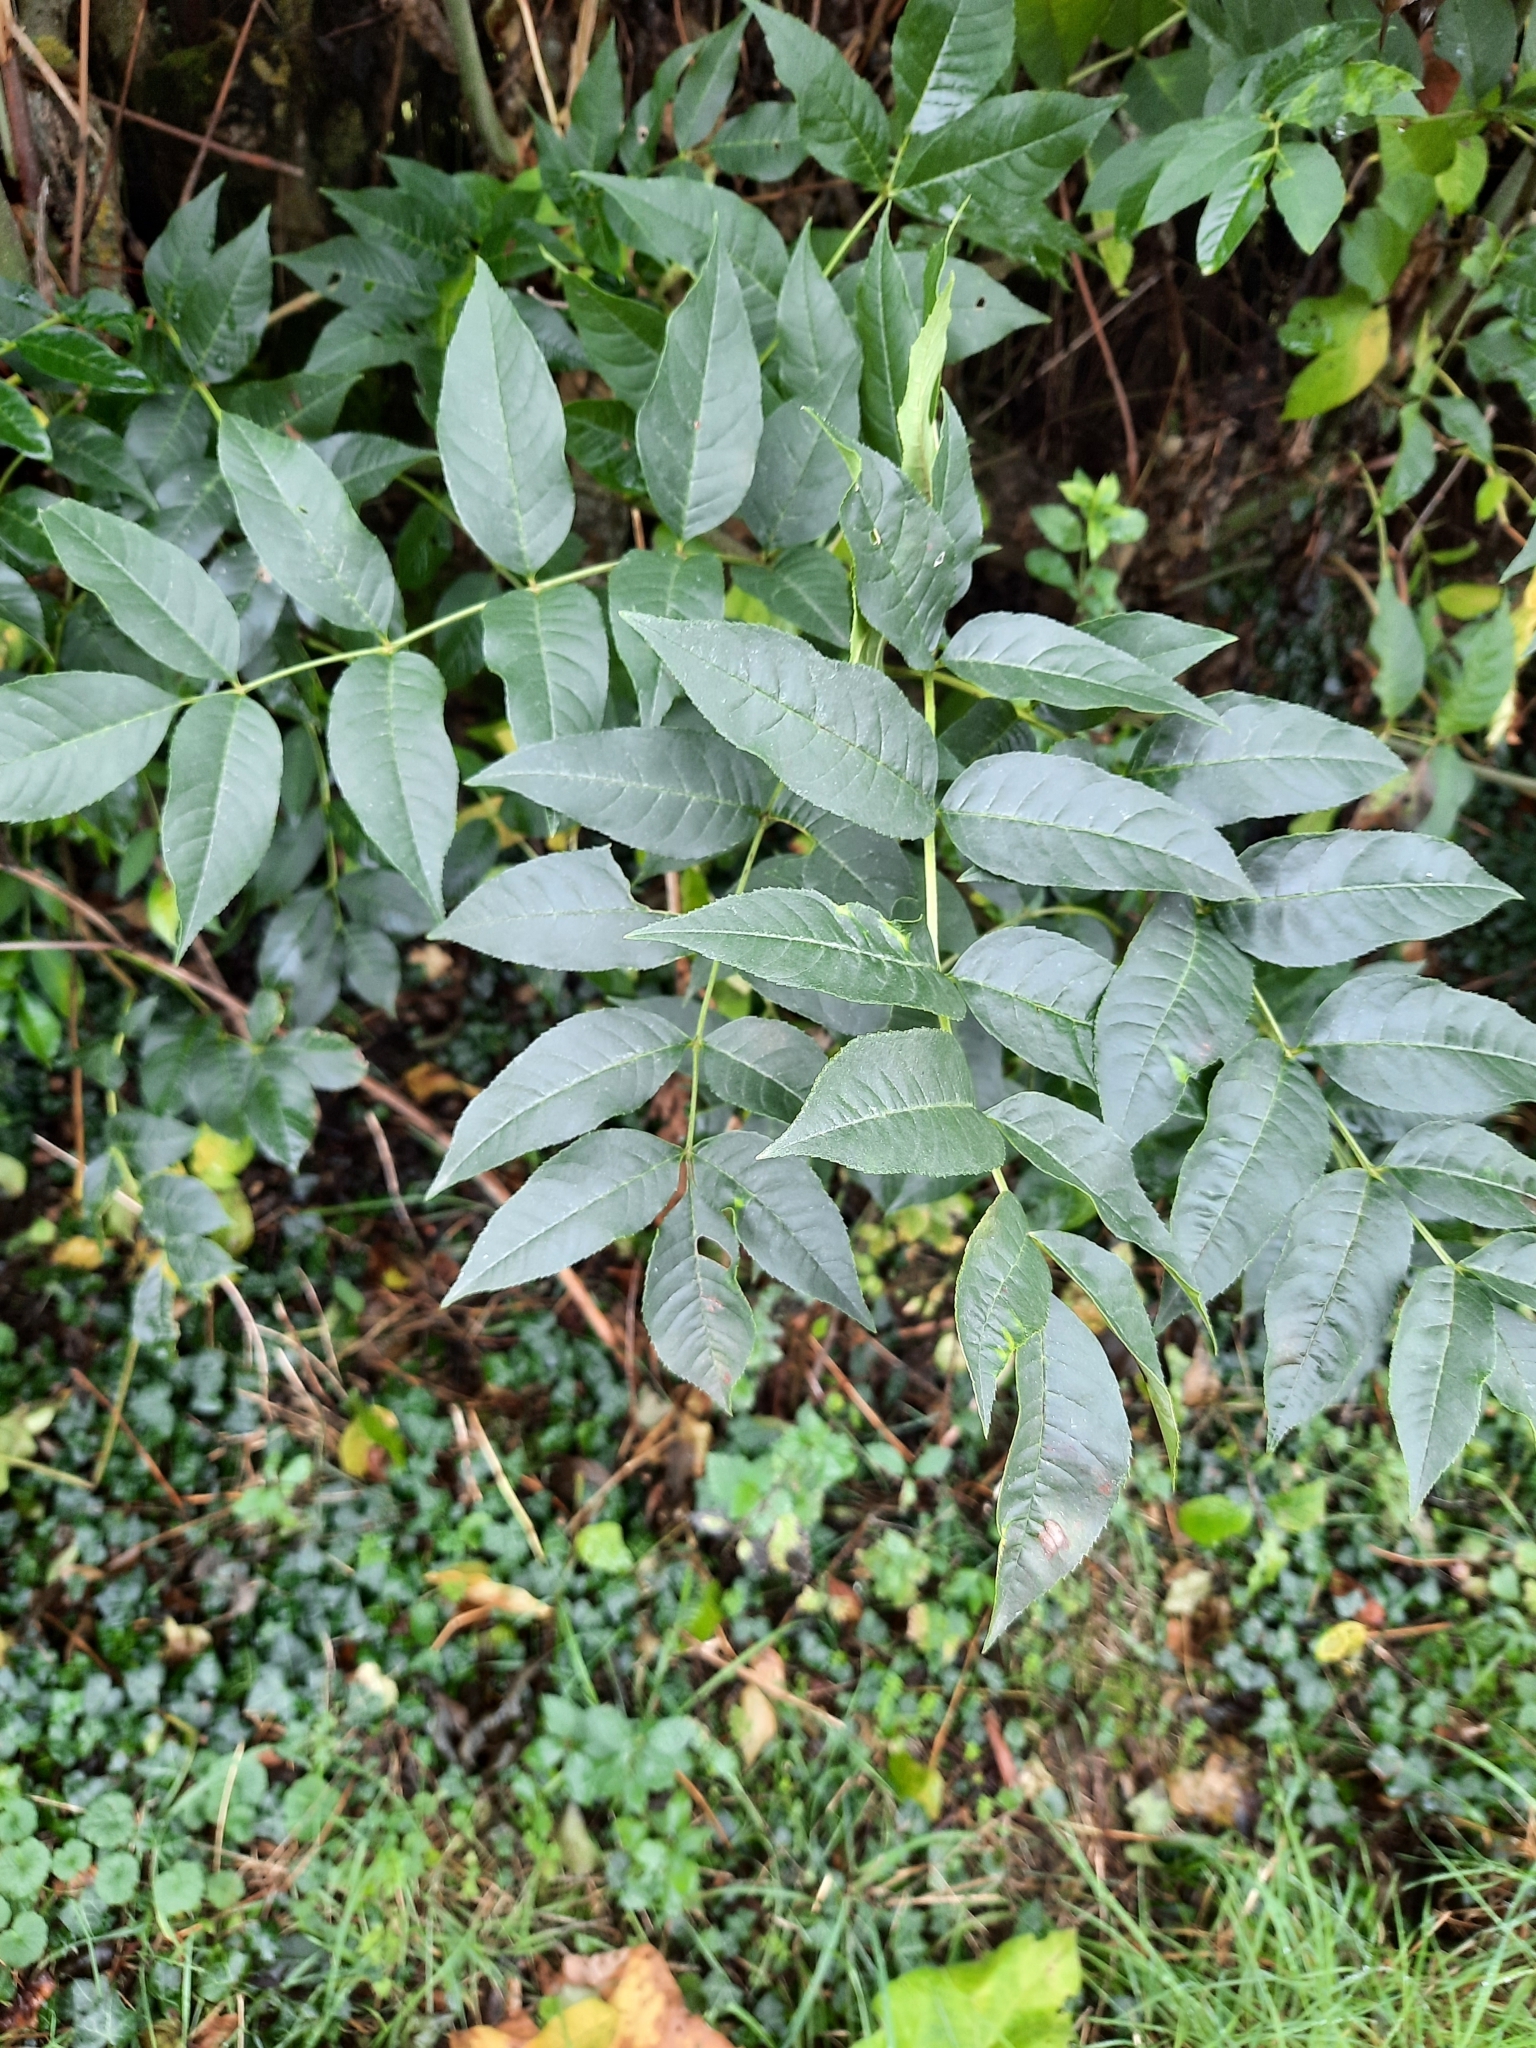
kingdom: Plantae
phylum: Tracheophyta
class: Magnoliopsida
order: Lamiales
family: Oleaceae
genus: Fraxinus
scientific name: Fraxinus excelsior
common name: European ash
